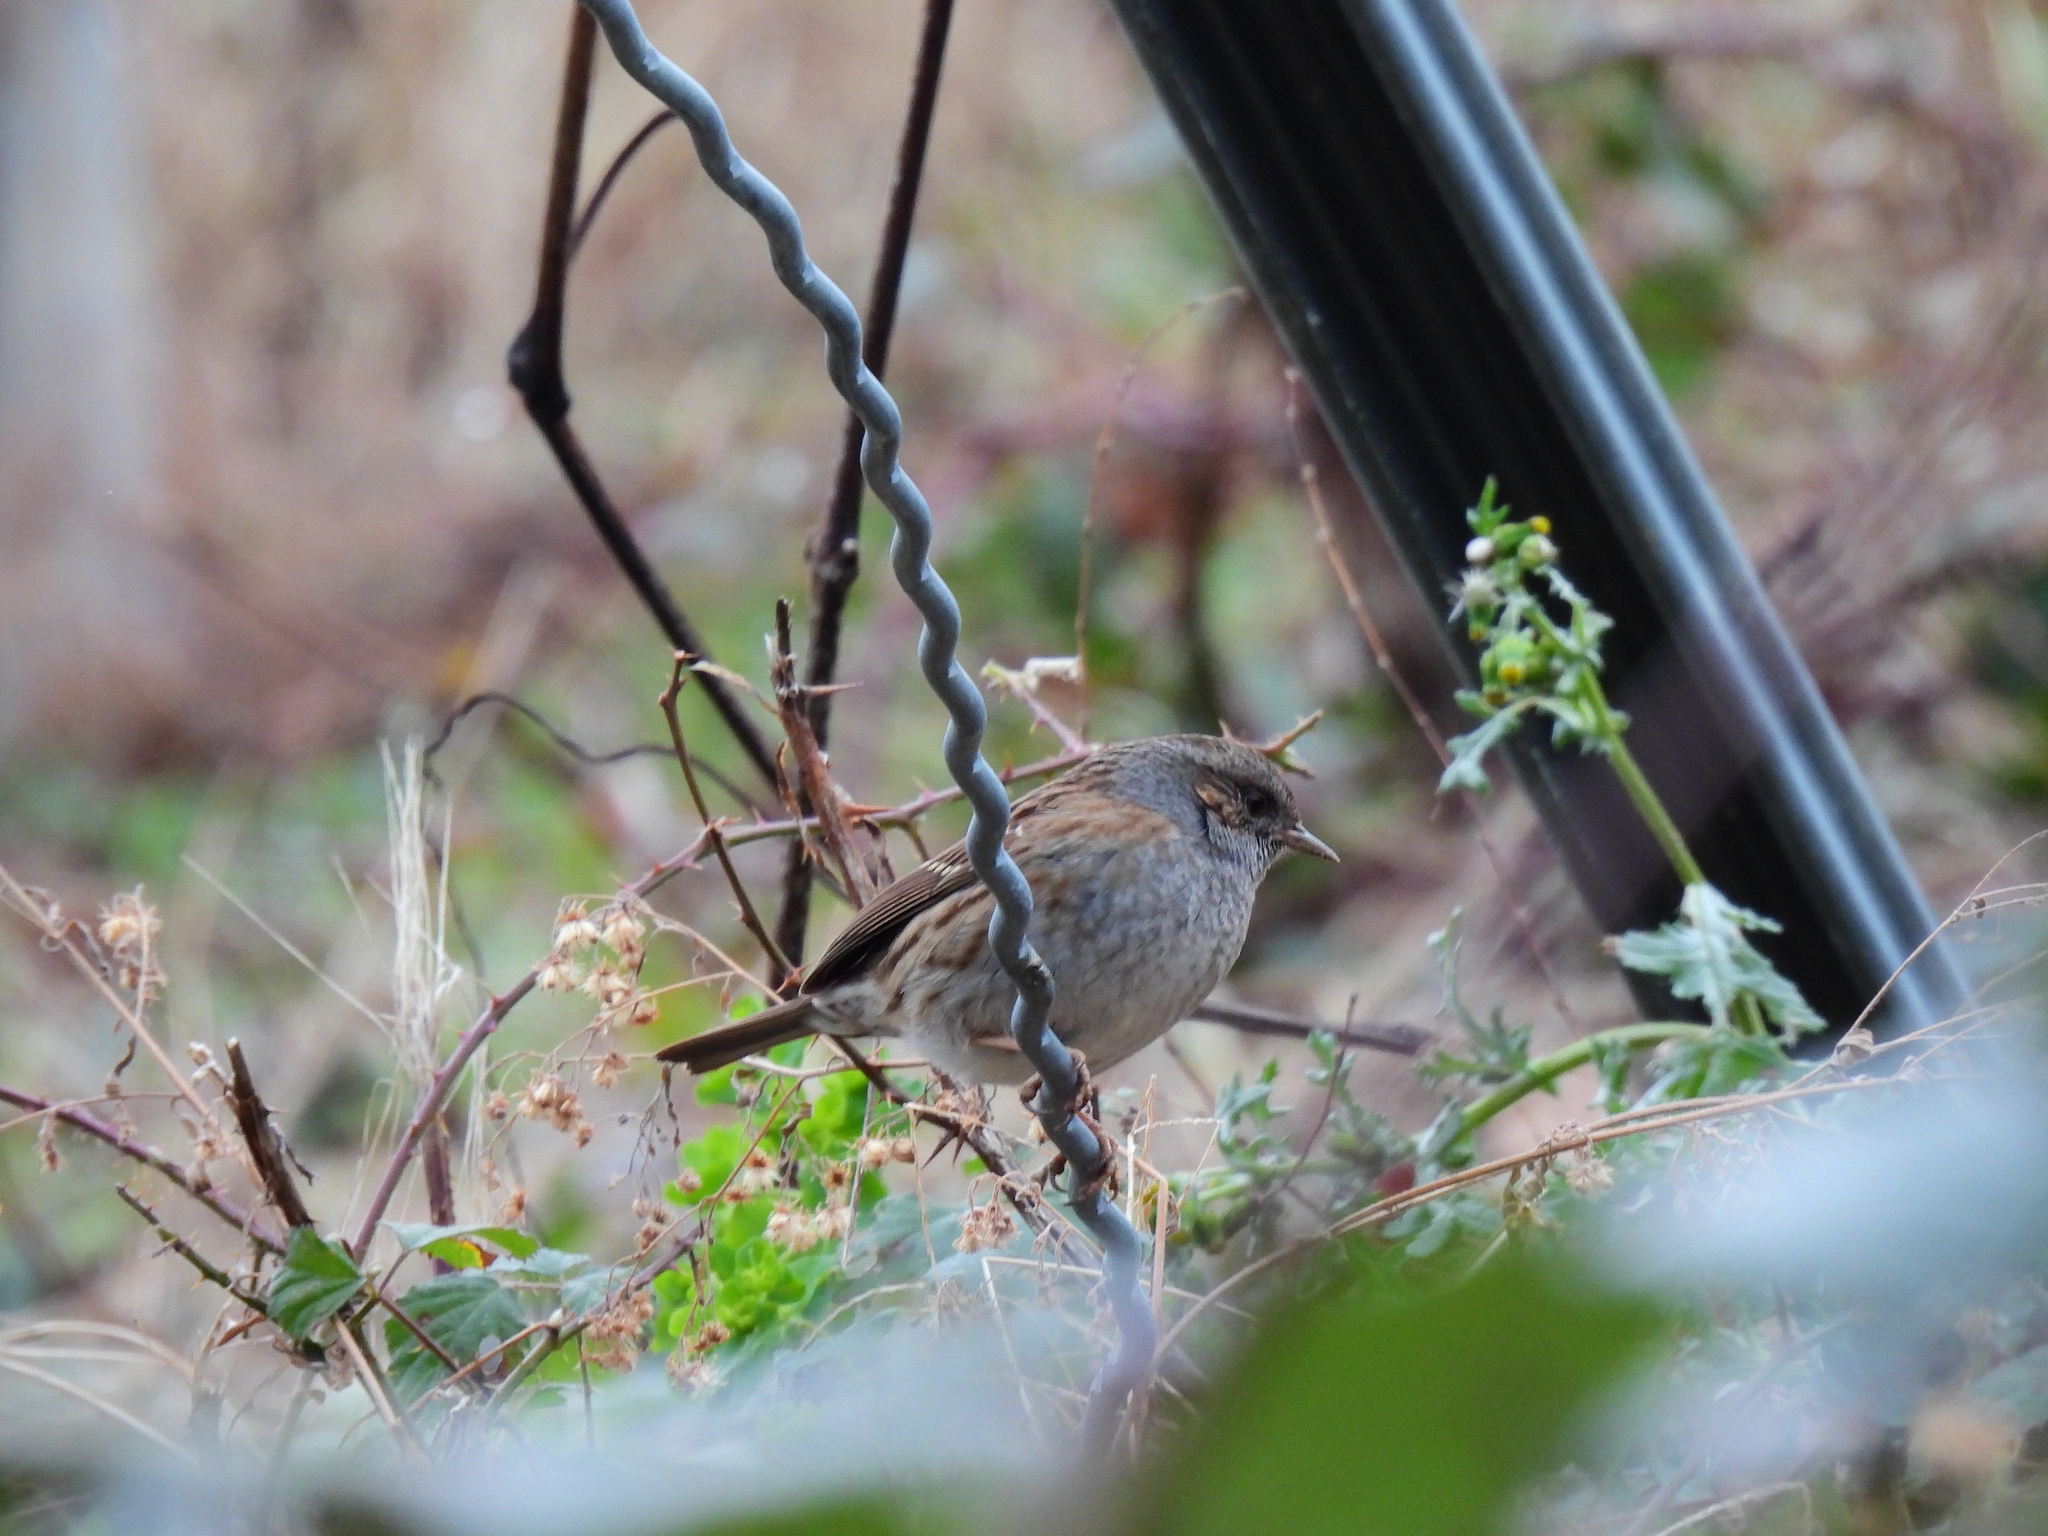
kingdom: Animalia
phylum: Chordata
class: Aves
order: Passeriformes
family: Prunellidae
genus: Prunella
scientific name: Prunella modularis
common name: Dunnock
